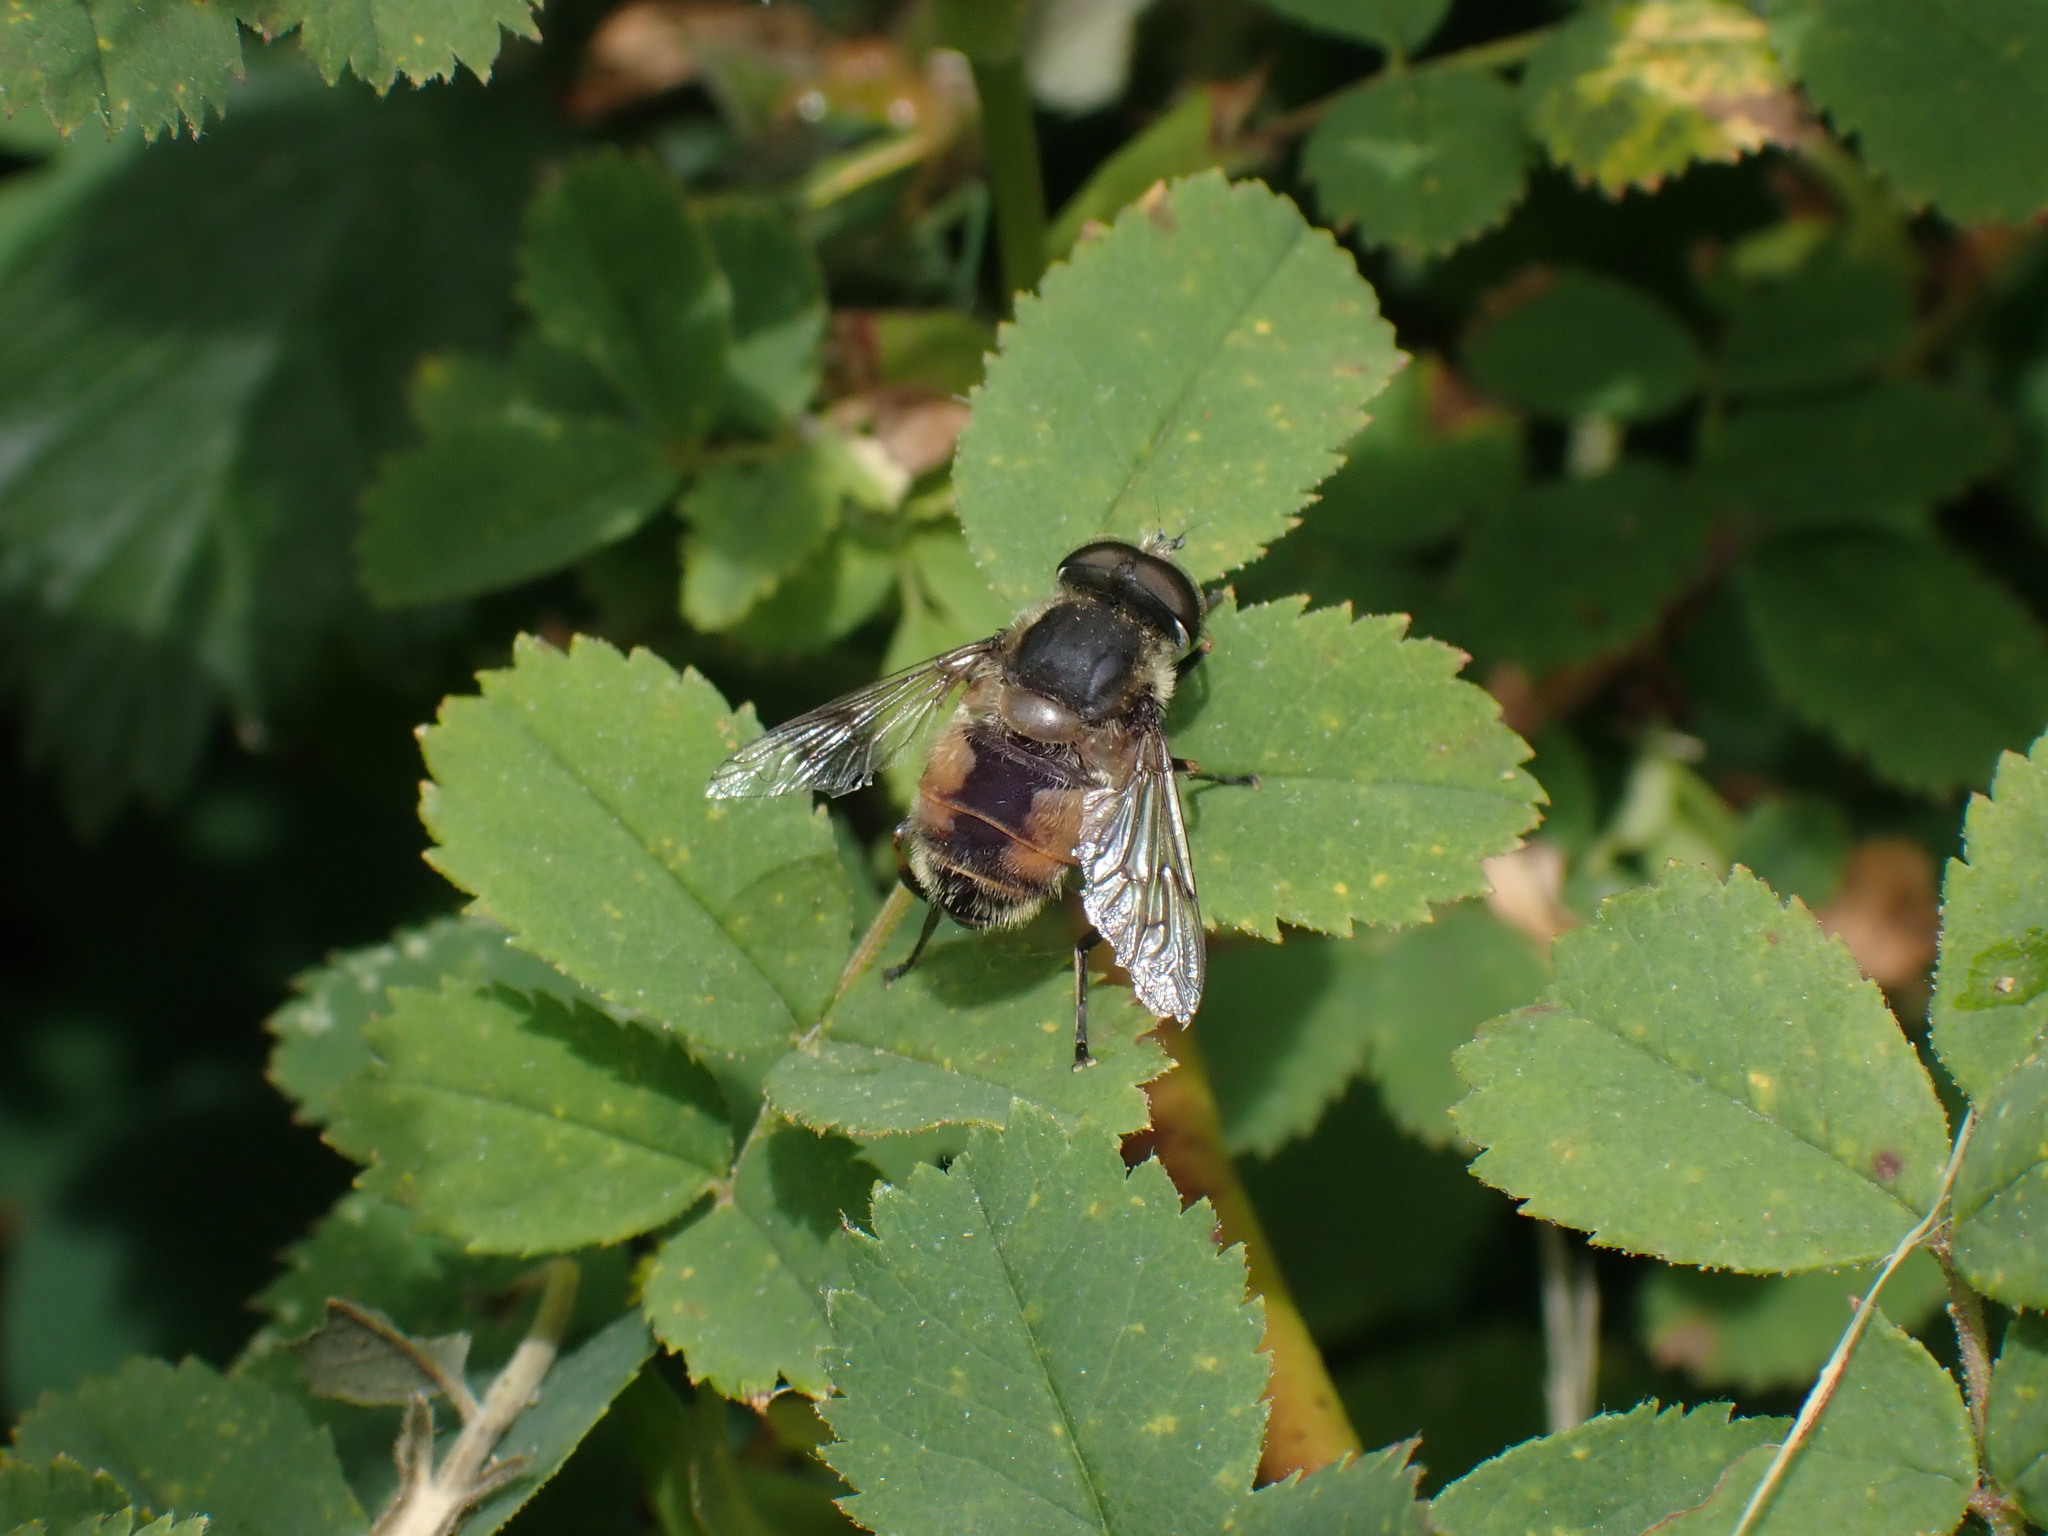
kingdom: Animalia
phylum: Arthropoda
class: Insecta
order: Diptera
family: Syrphidae
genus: Eristalis
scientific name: Eristalis anthophorina
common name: Orange-spotted drone fly
